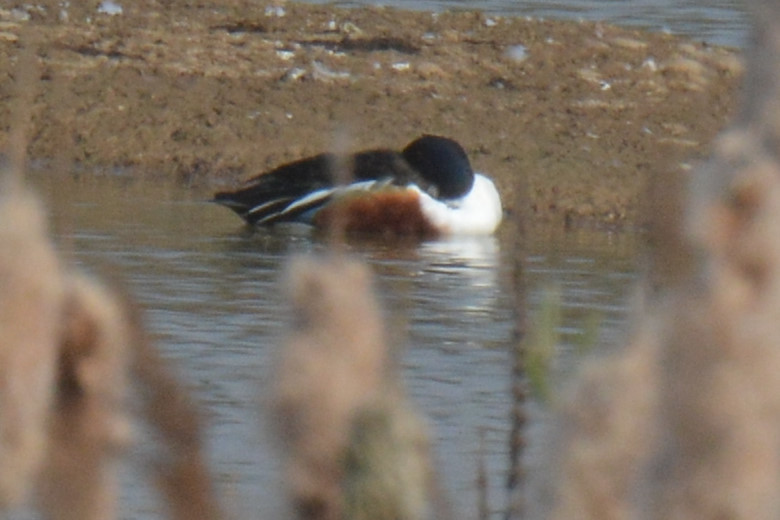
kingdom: Animalia
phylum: Chordata
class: Aves
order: Anseriformes
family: Anatidae
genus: Spatula
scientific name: Spatula clypeata
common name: Northern shoveler
